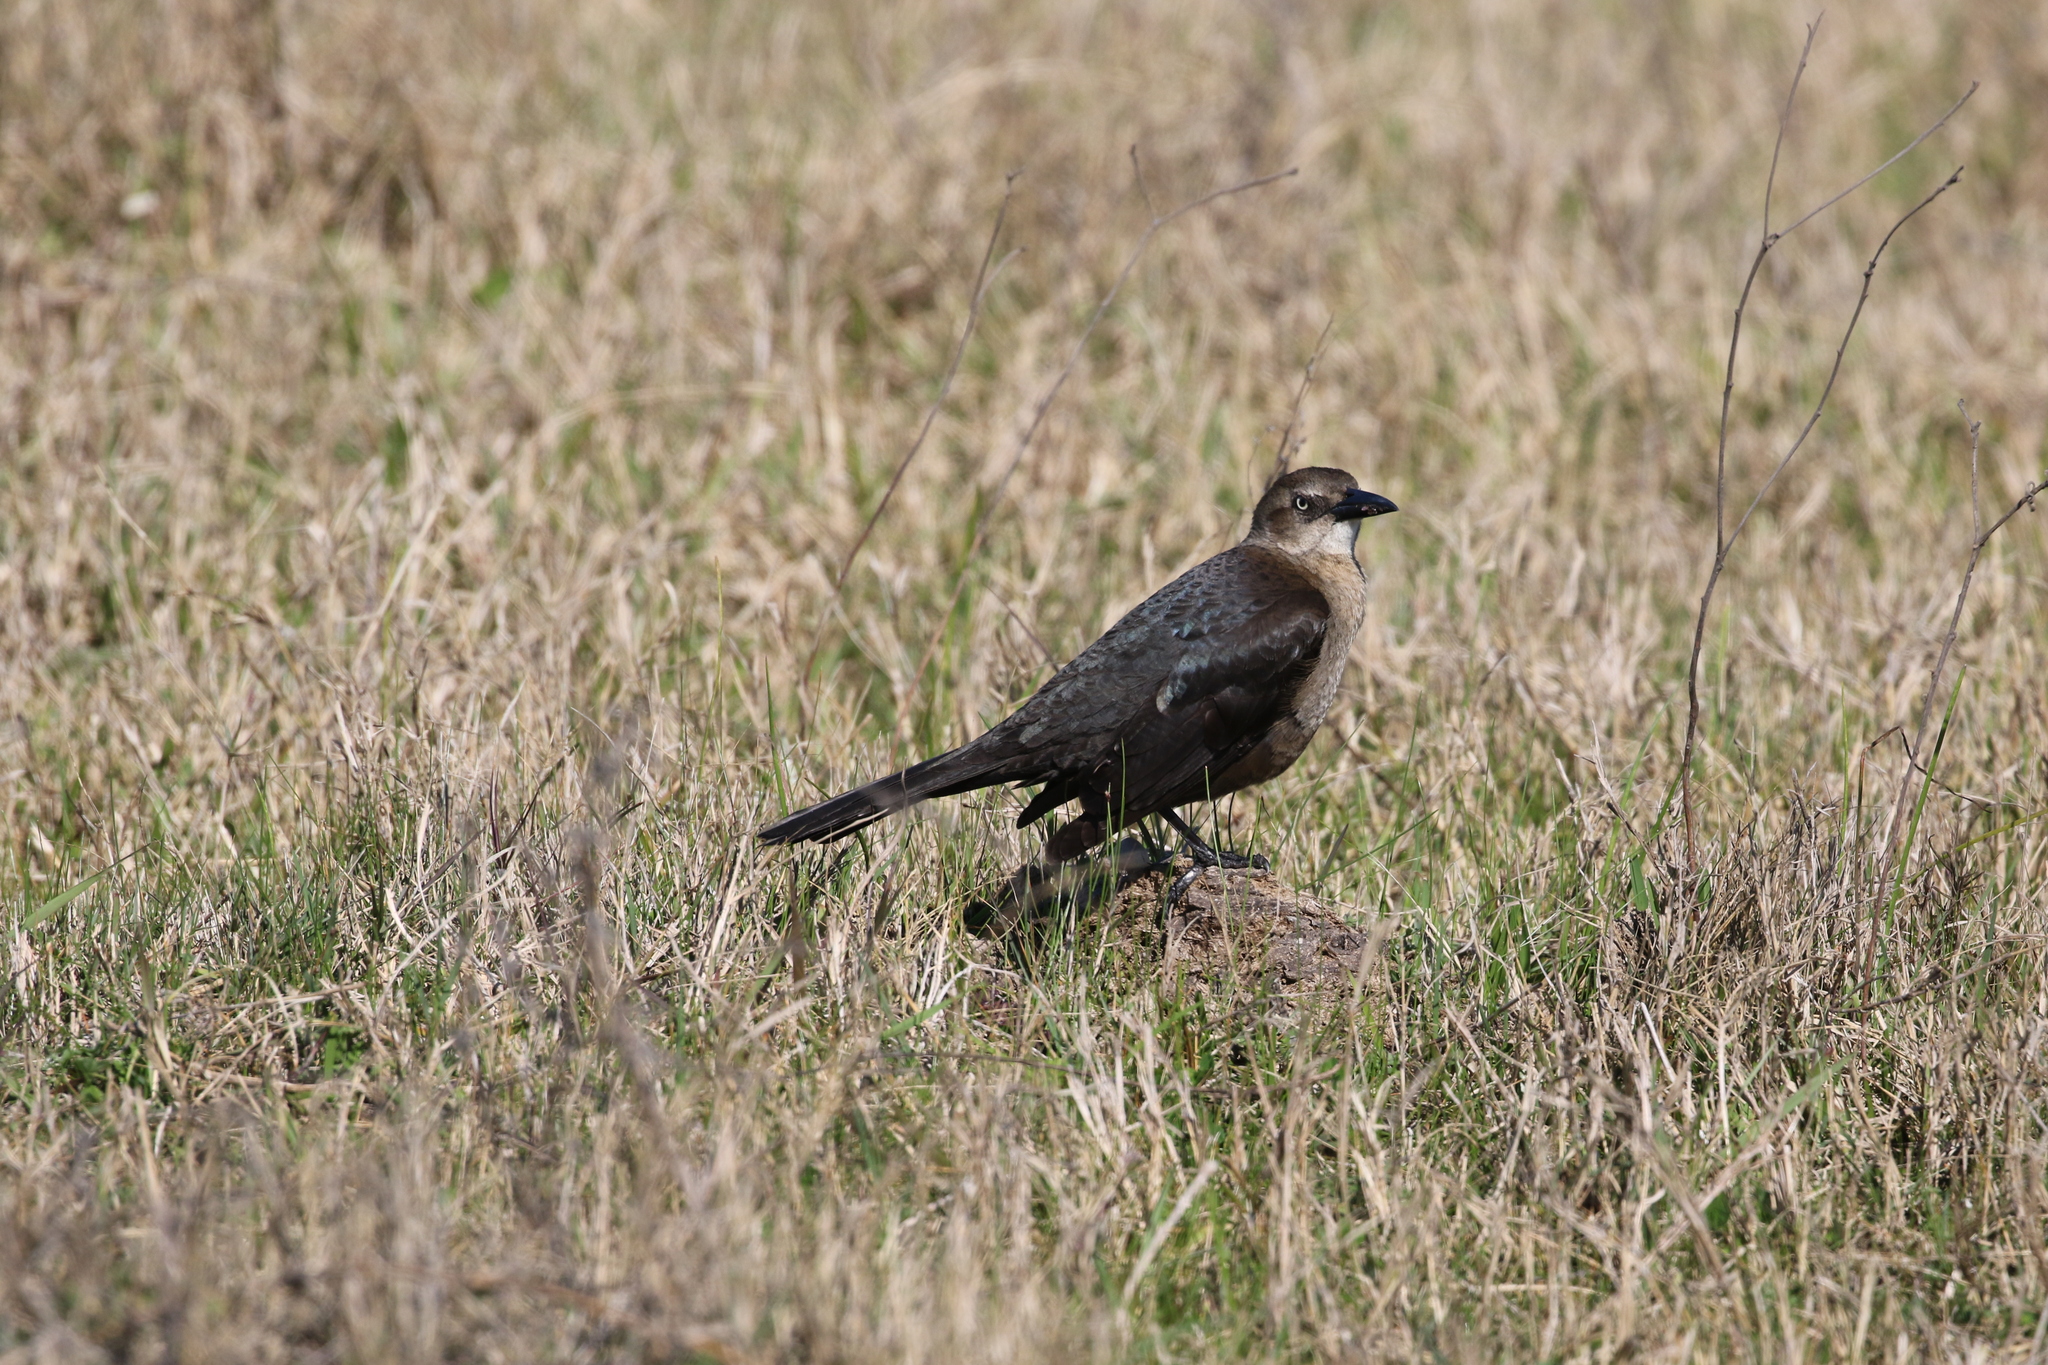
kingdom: Animalia
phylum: Chordata
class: Aves
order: Passeriformes
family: Icteridae
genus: Quiscalus
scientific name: Quiscalus mexicanus
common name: Great-tailed grackle
